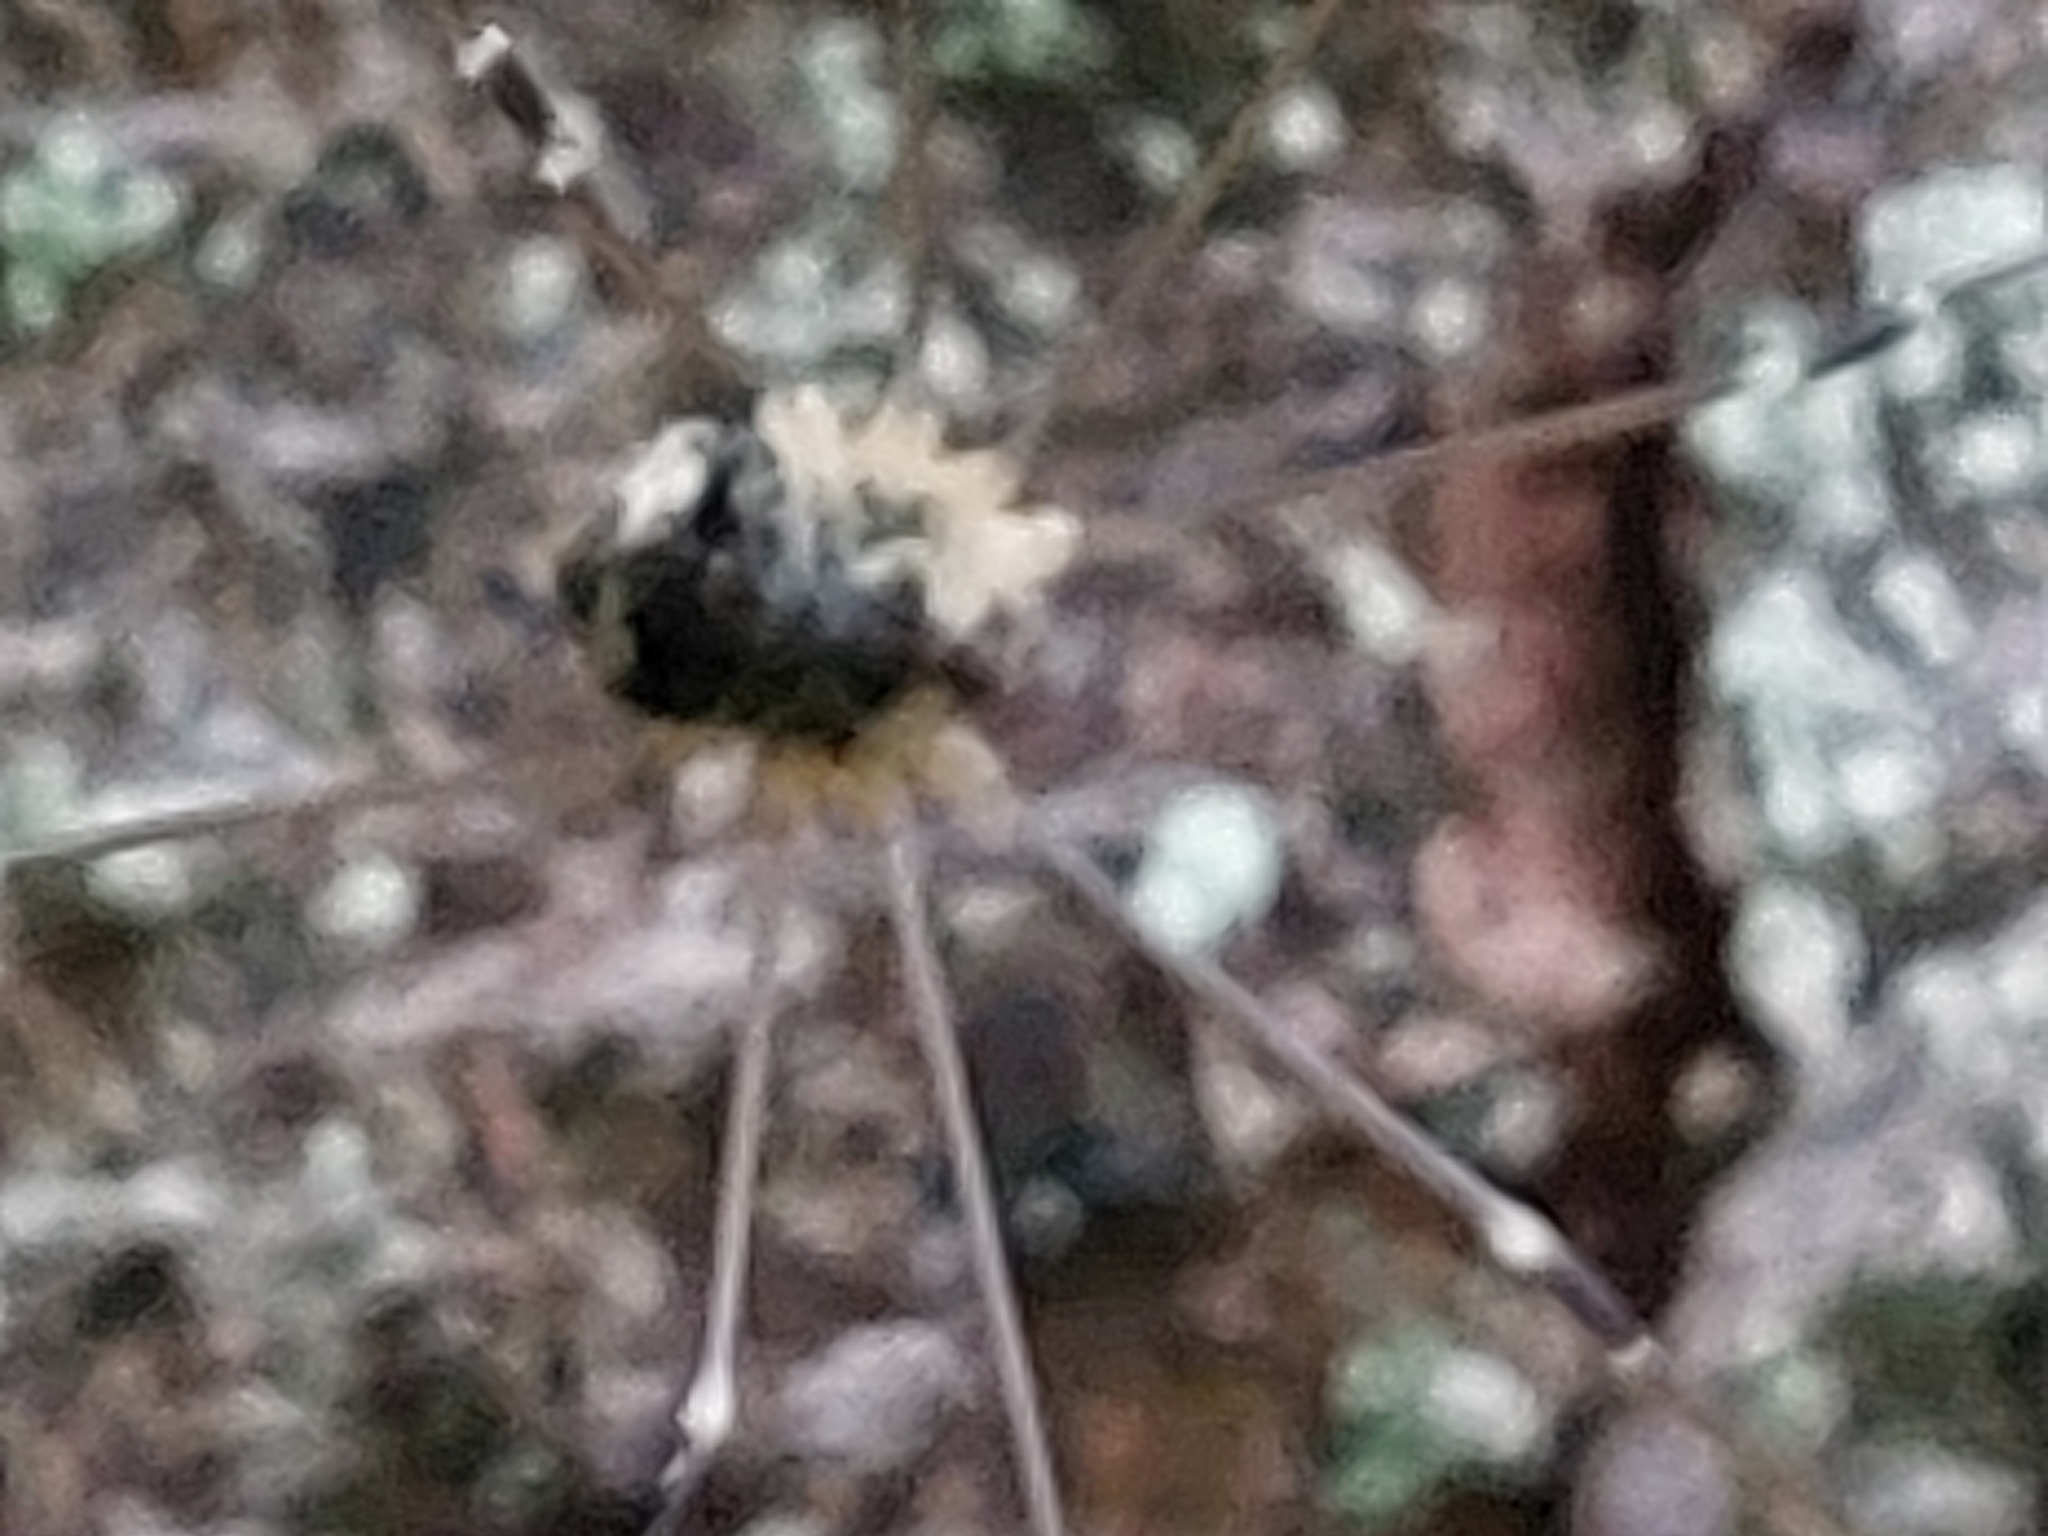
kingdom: Animalia
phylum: Arthropoda
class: Arachnida
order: Opiliones
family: Sclerosomatidae
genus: Leiobunum
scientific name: Leiobunum gracile
